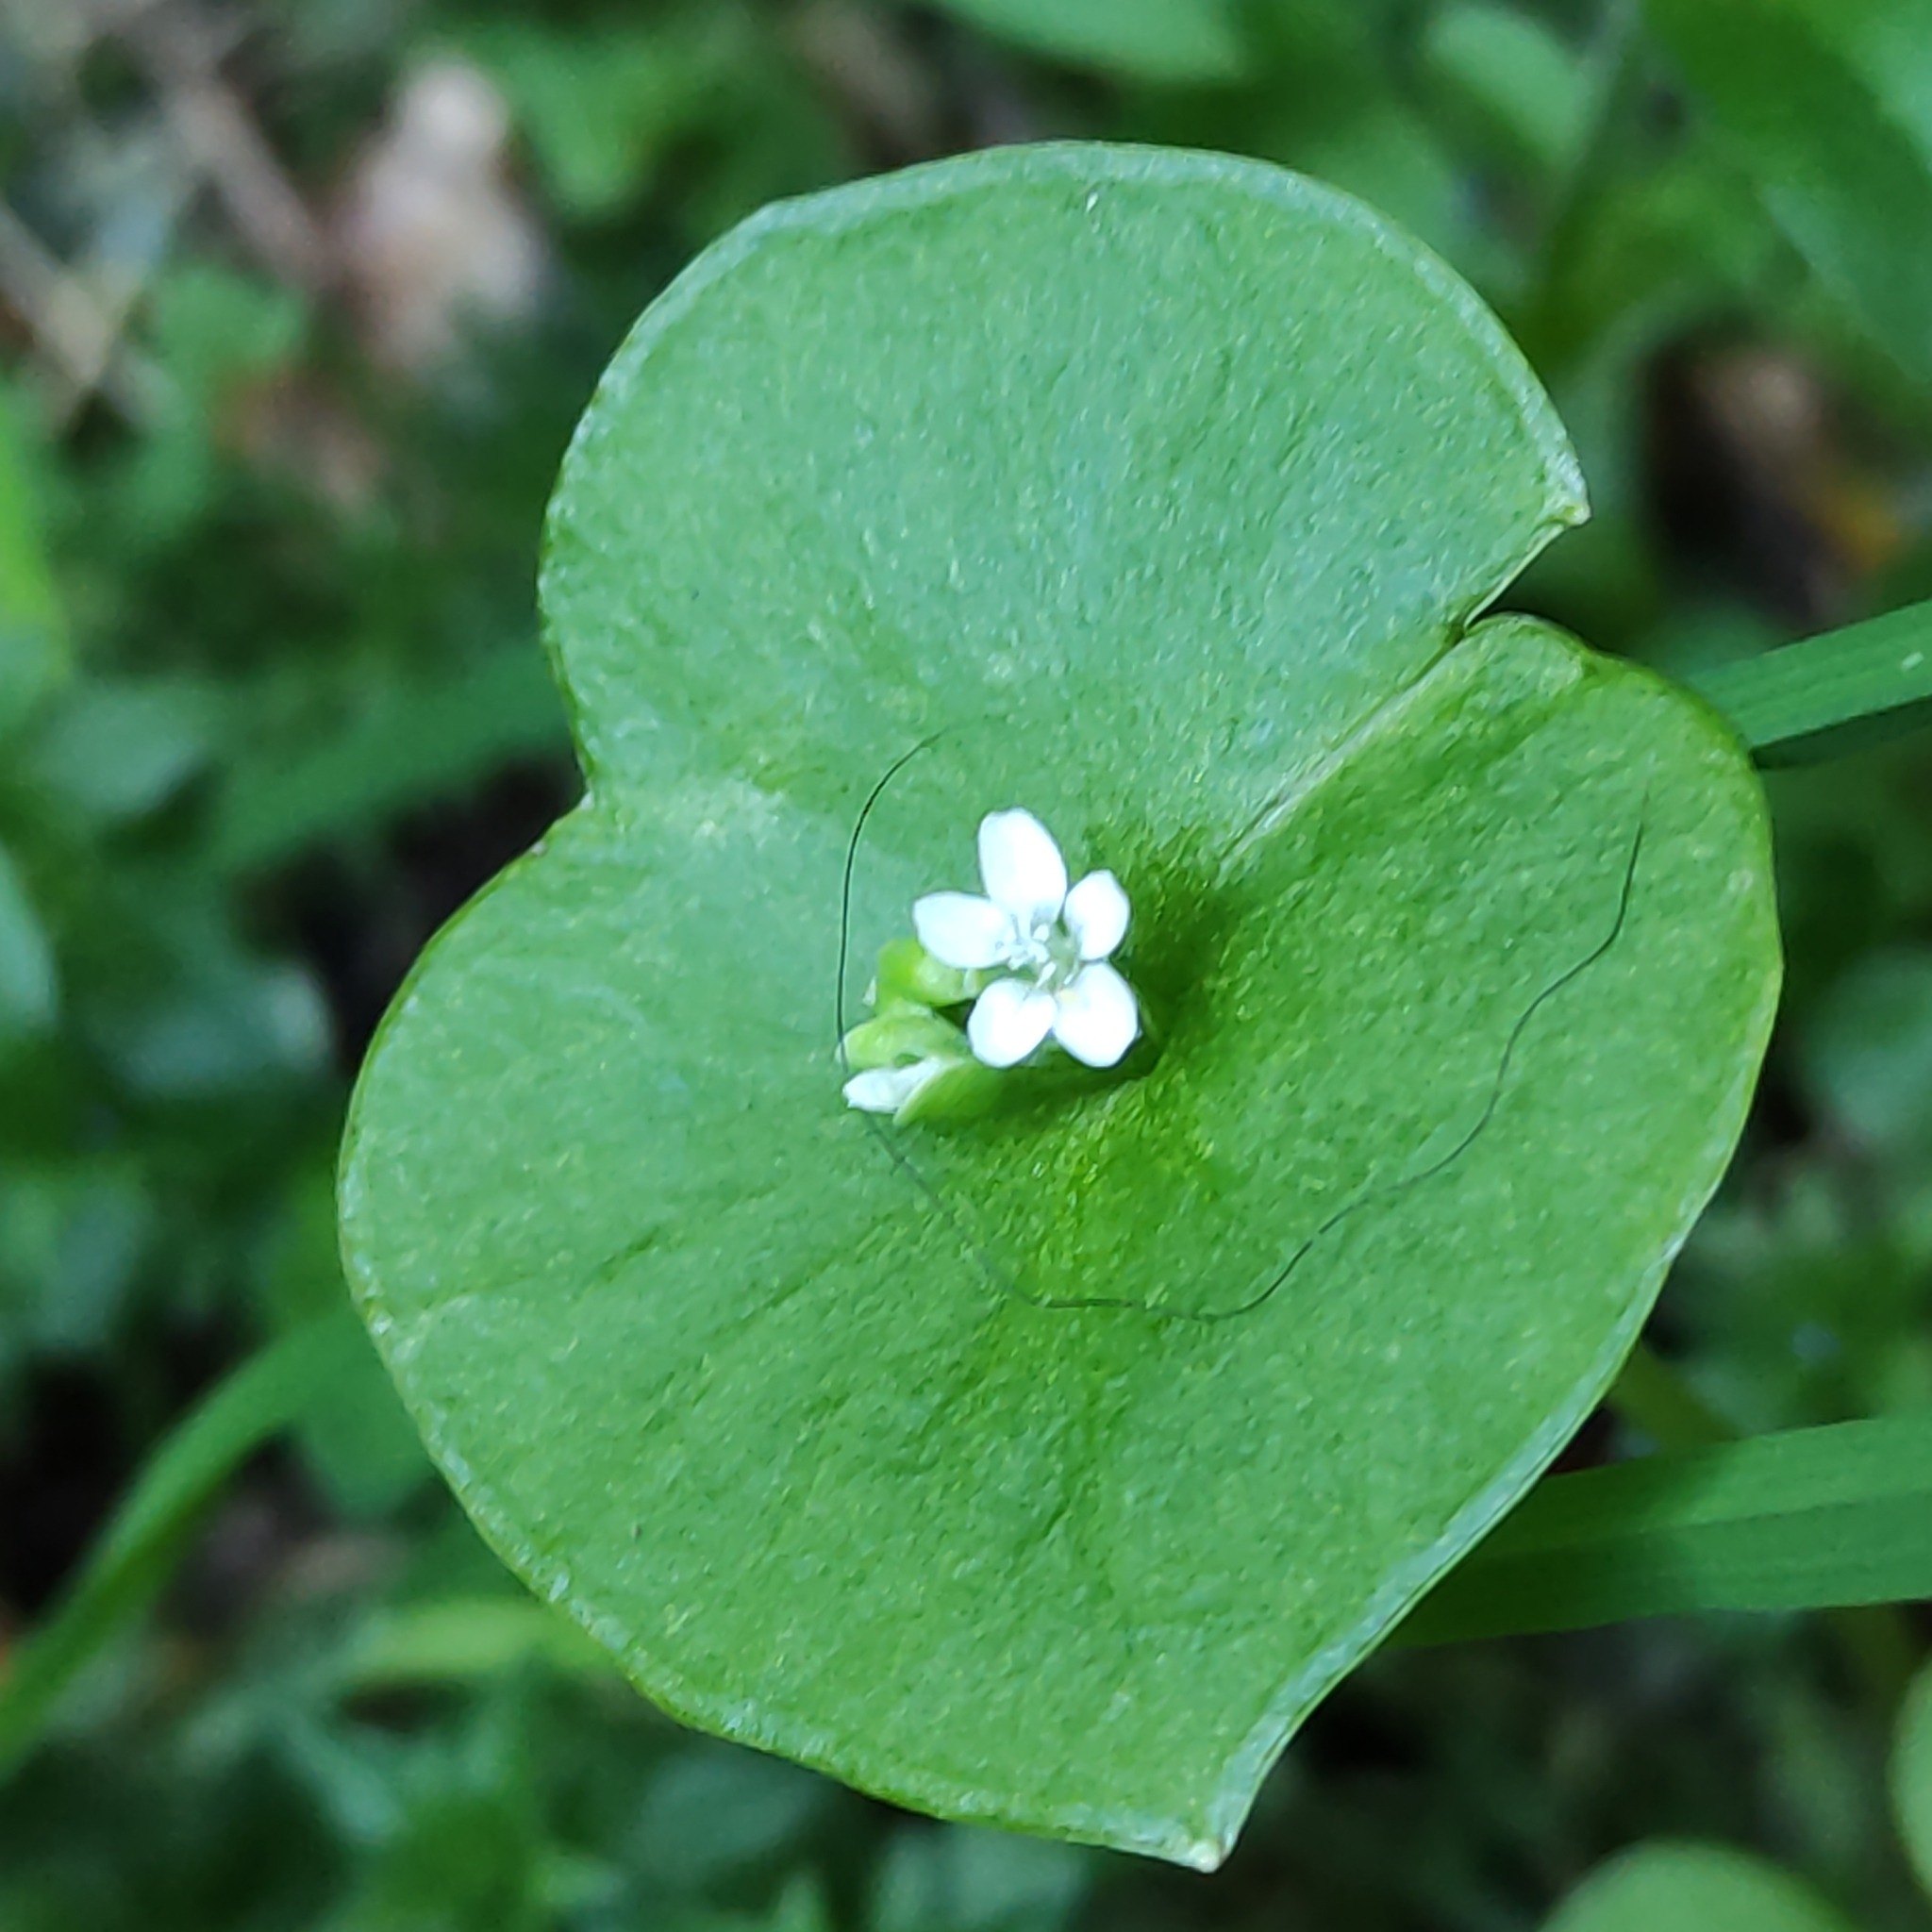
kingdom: Plantae
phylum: Tracheophyta
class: Magnoliopsida
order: Caryophyllales
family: Montiaceae
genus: Claytonia
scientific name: Claytonia perfoliata
